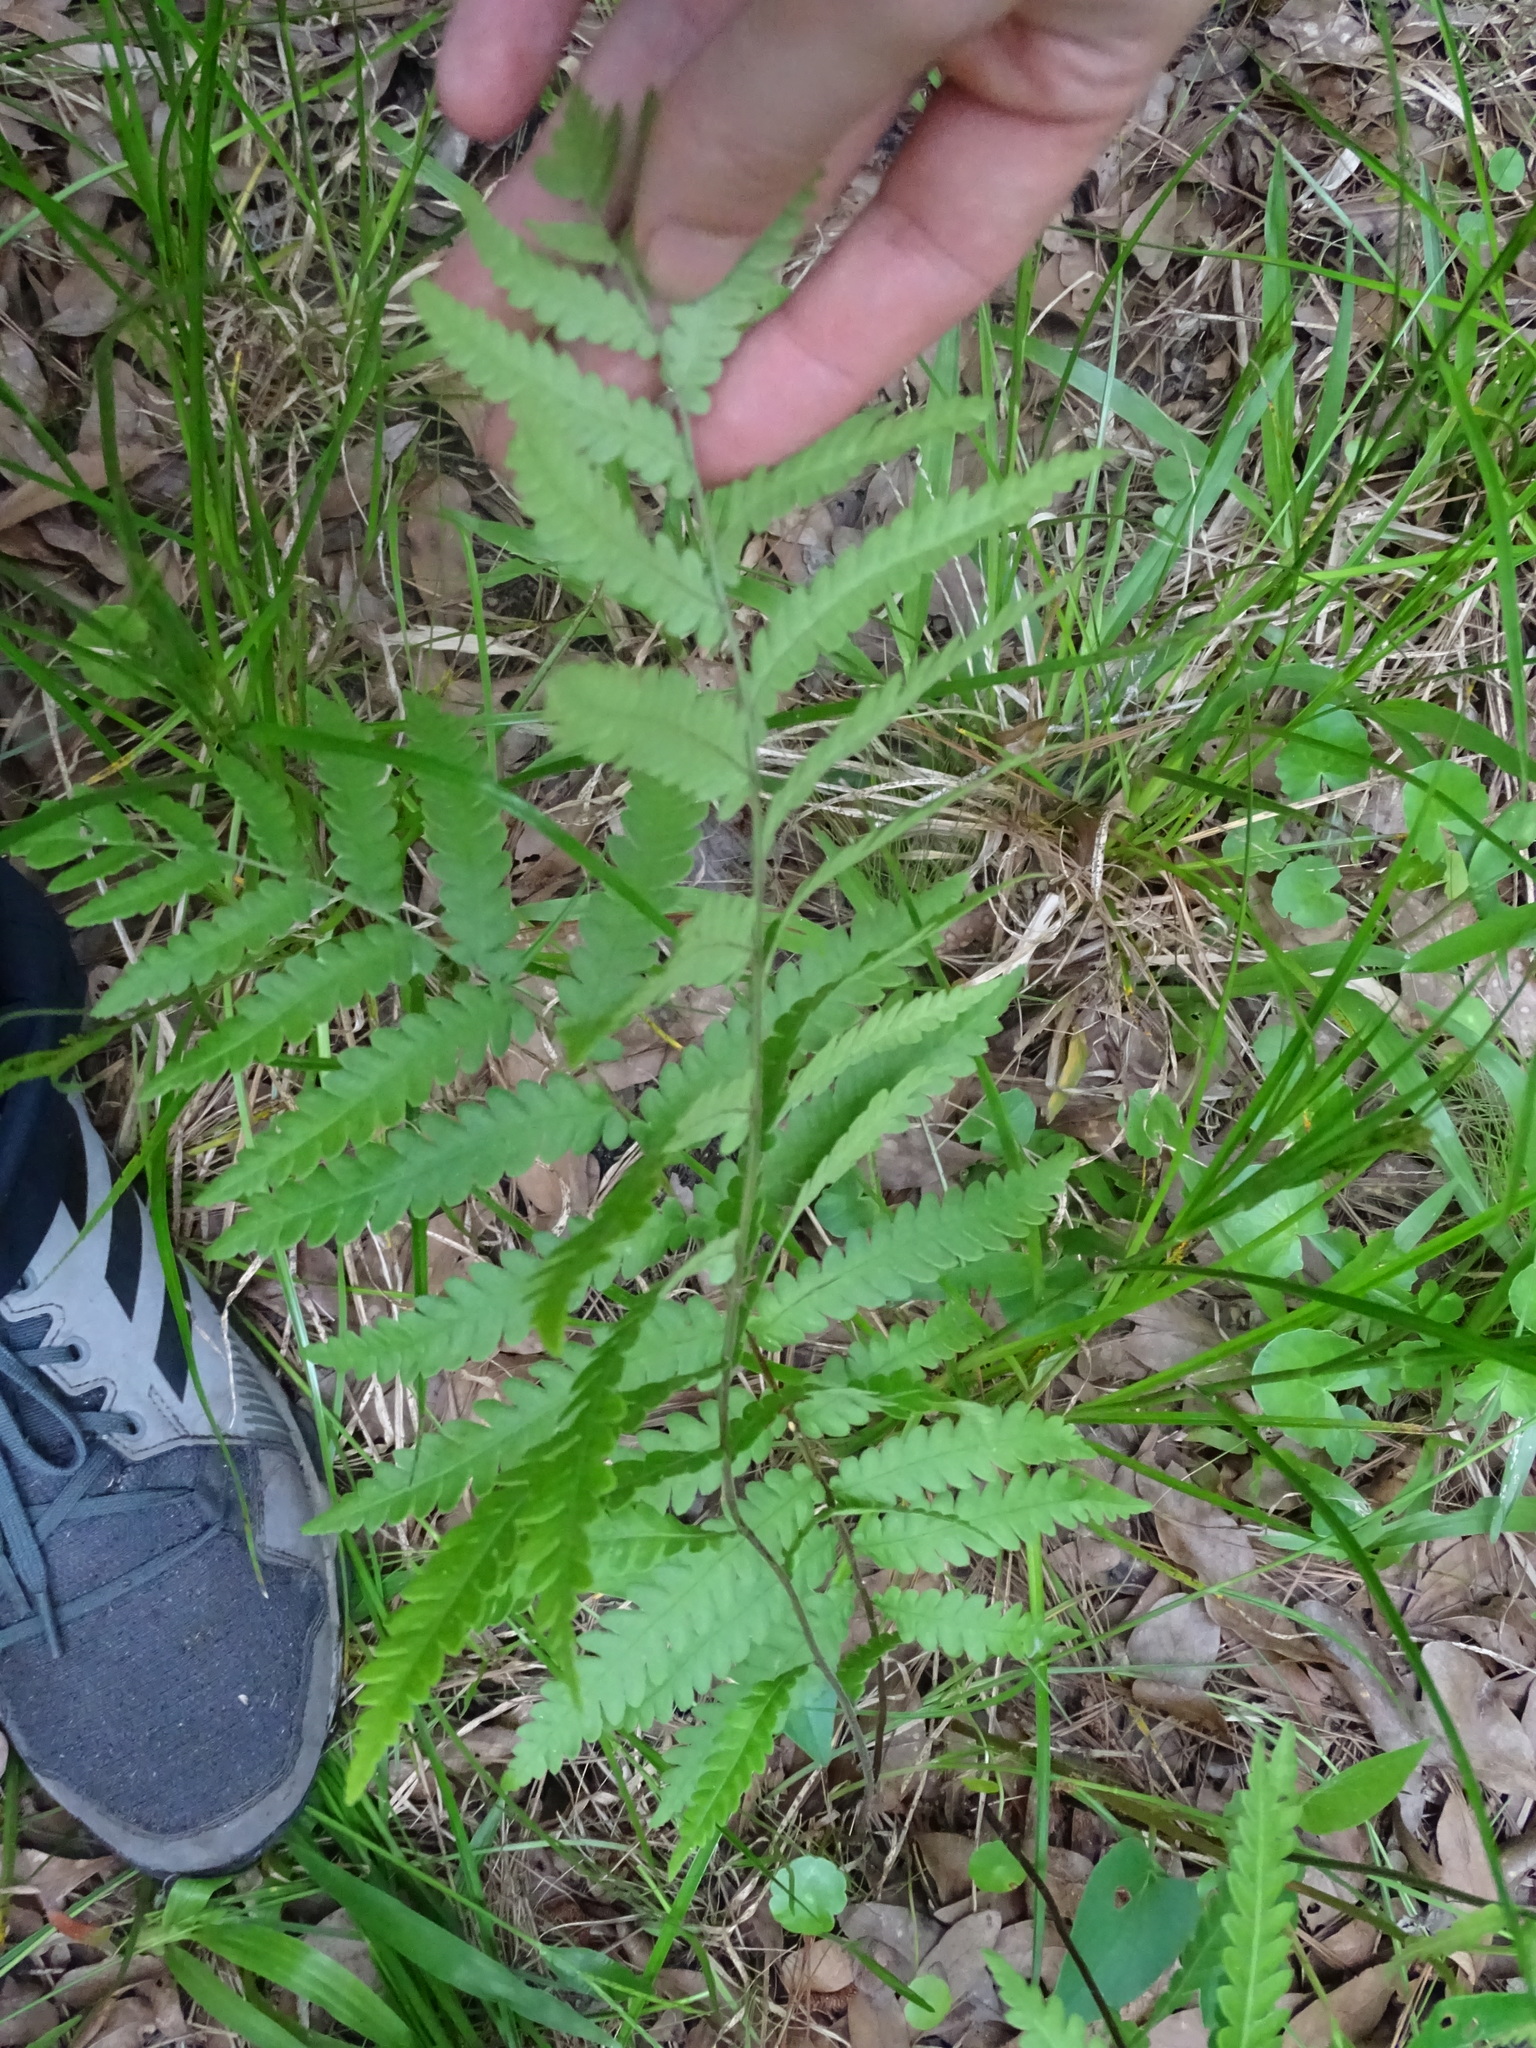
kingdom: Plantae
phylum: Tracheophyta
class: Polypodiopsida
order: Polypodiales
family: Blechnaceae
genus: Anchistea
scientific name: Anchistea virginica
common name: Virginia chain fern
